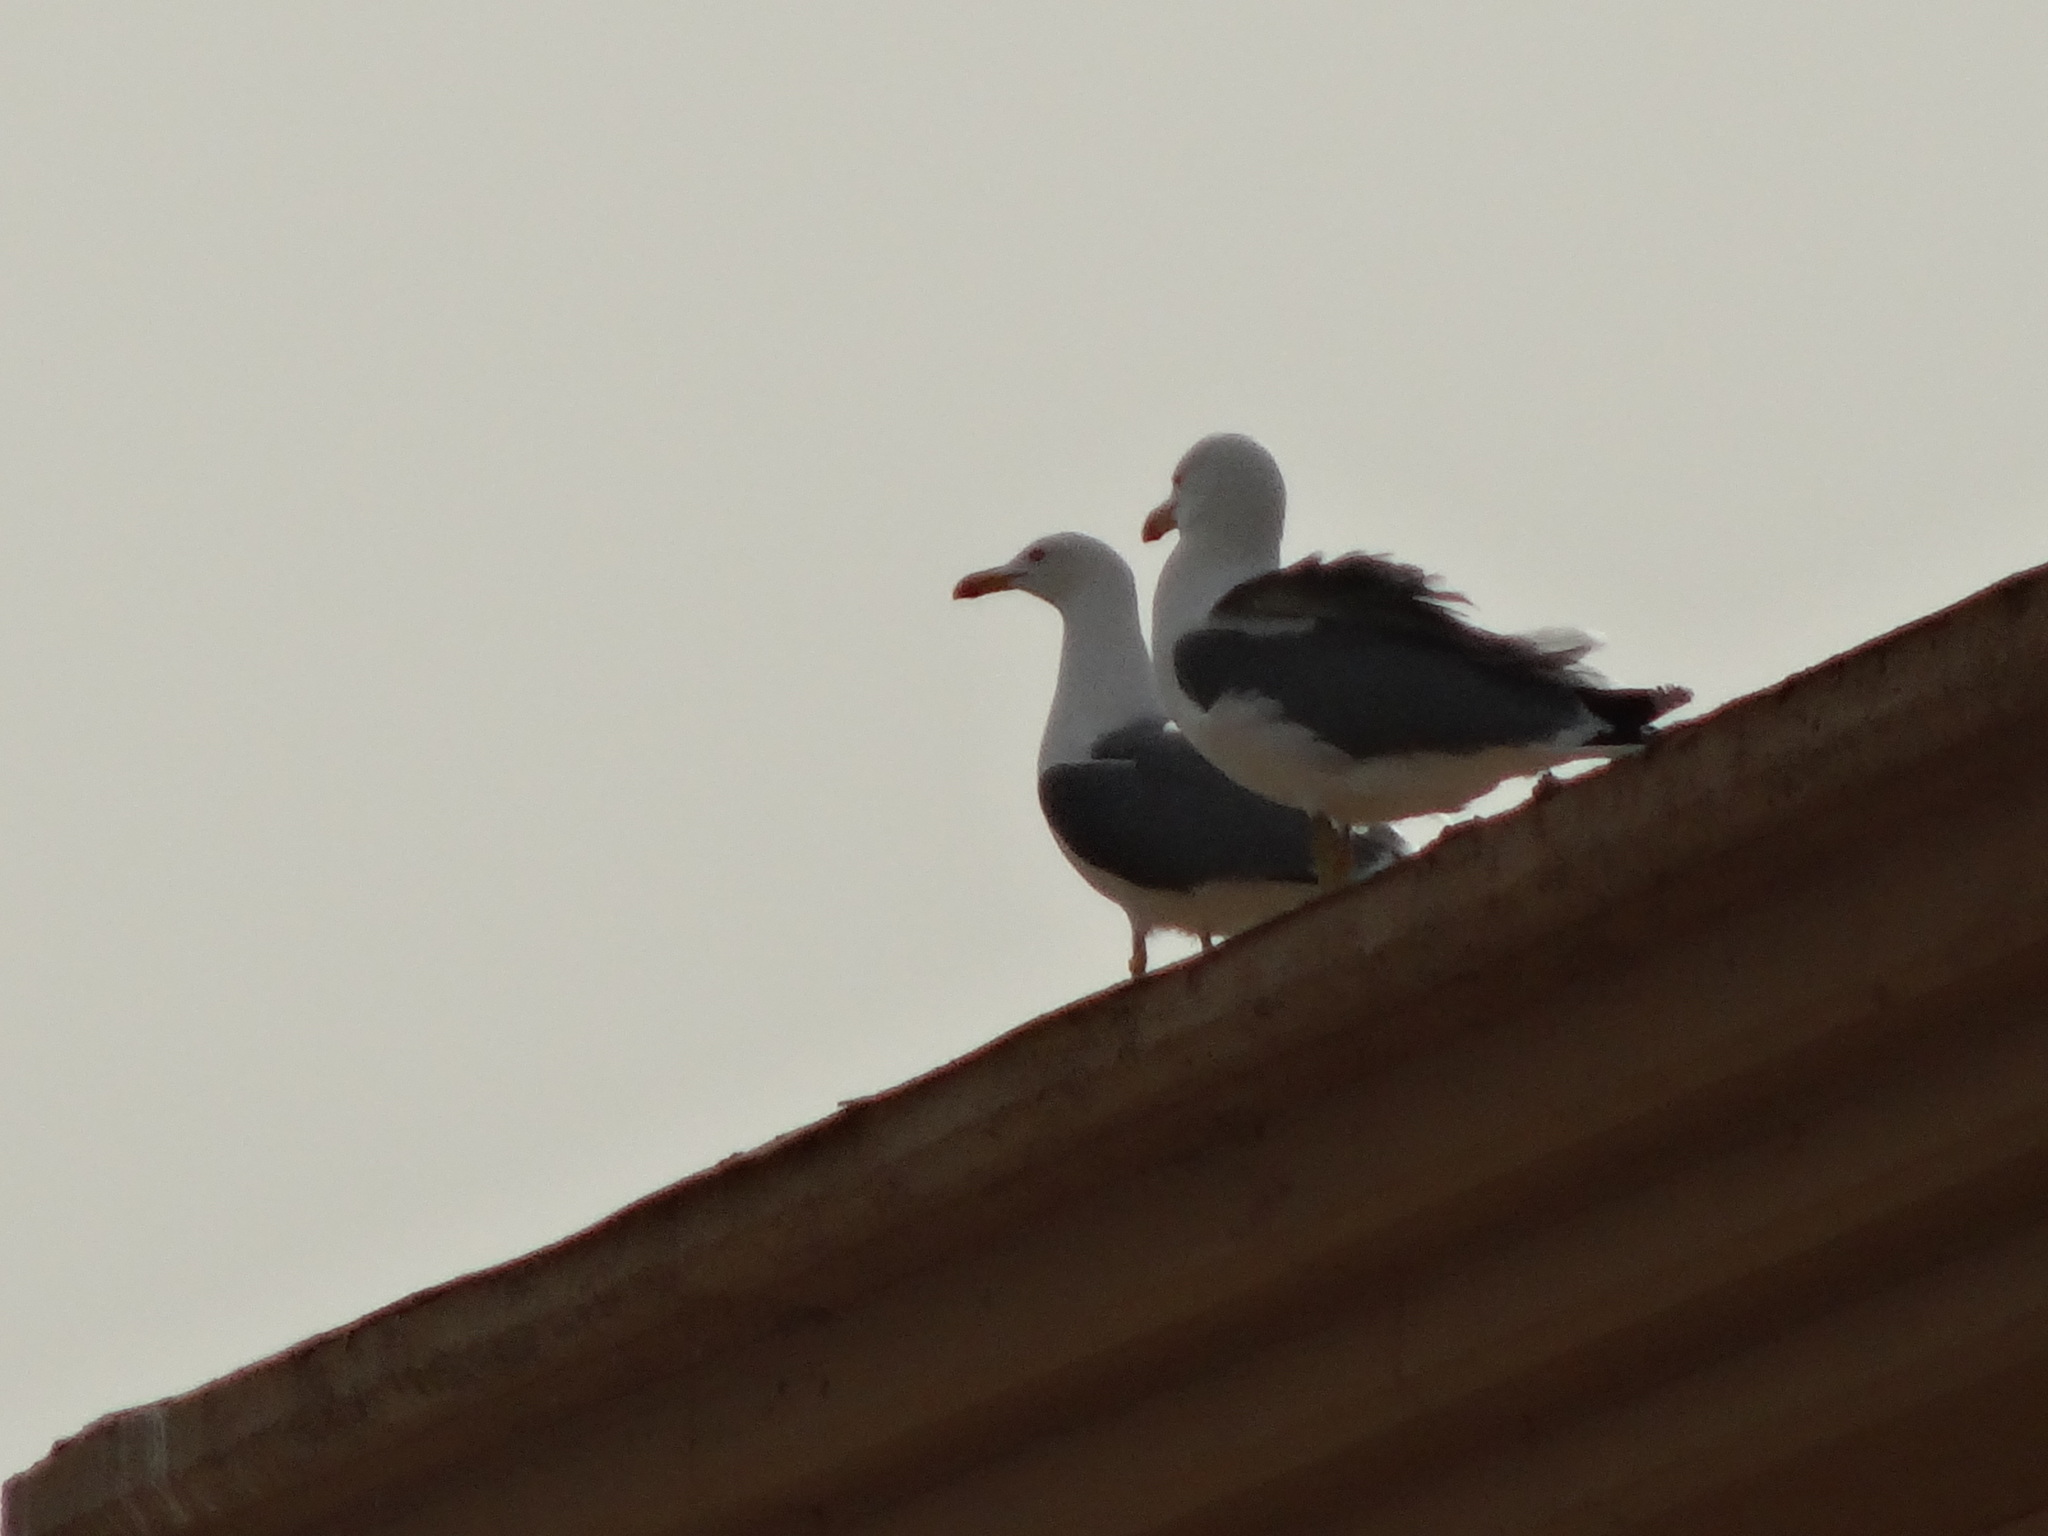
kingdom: Animalia
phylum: Chordata
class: Aves
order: Charadriiformes
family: Laridae
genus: Larus
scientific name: Larus michahellis
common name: Yellow-legged gull
